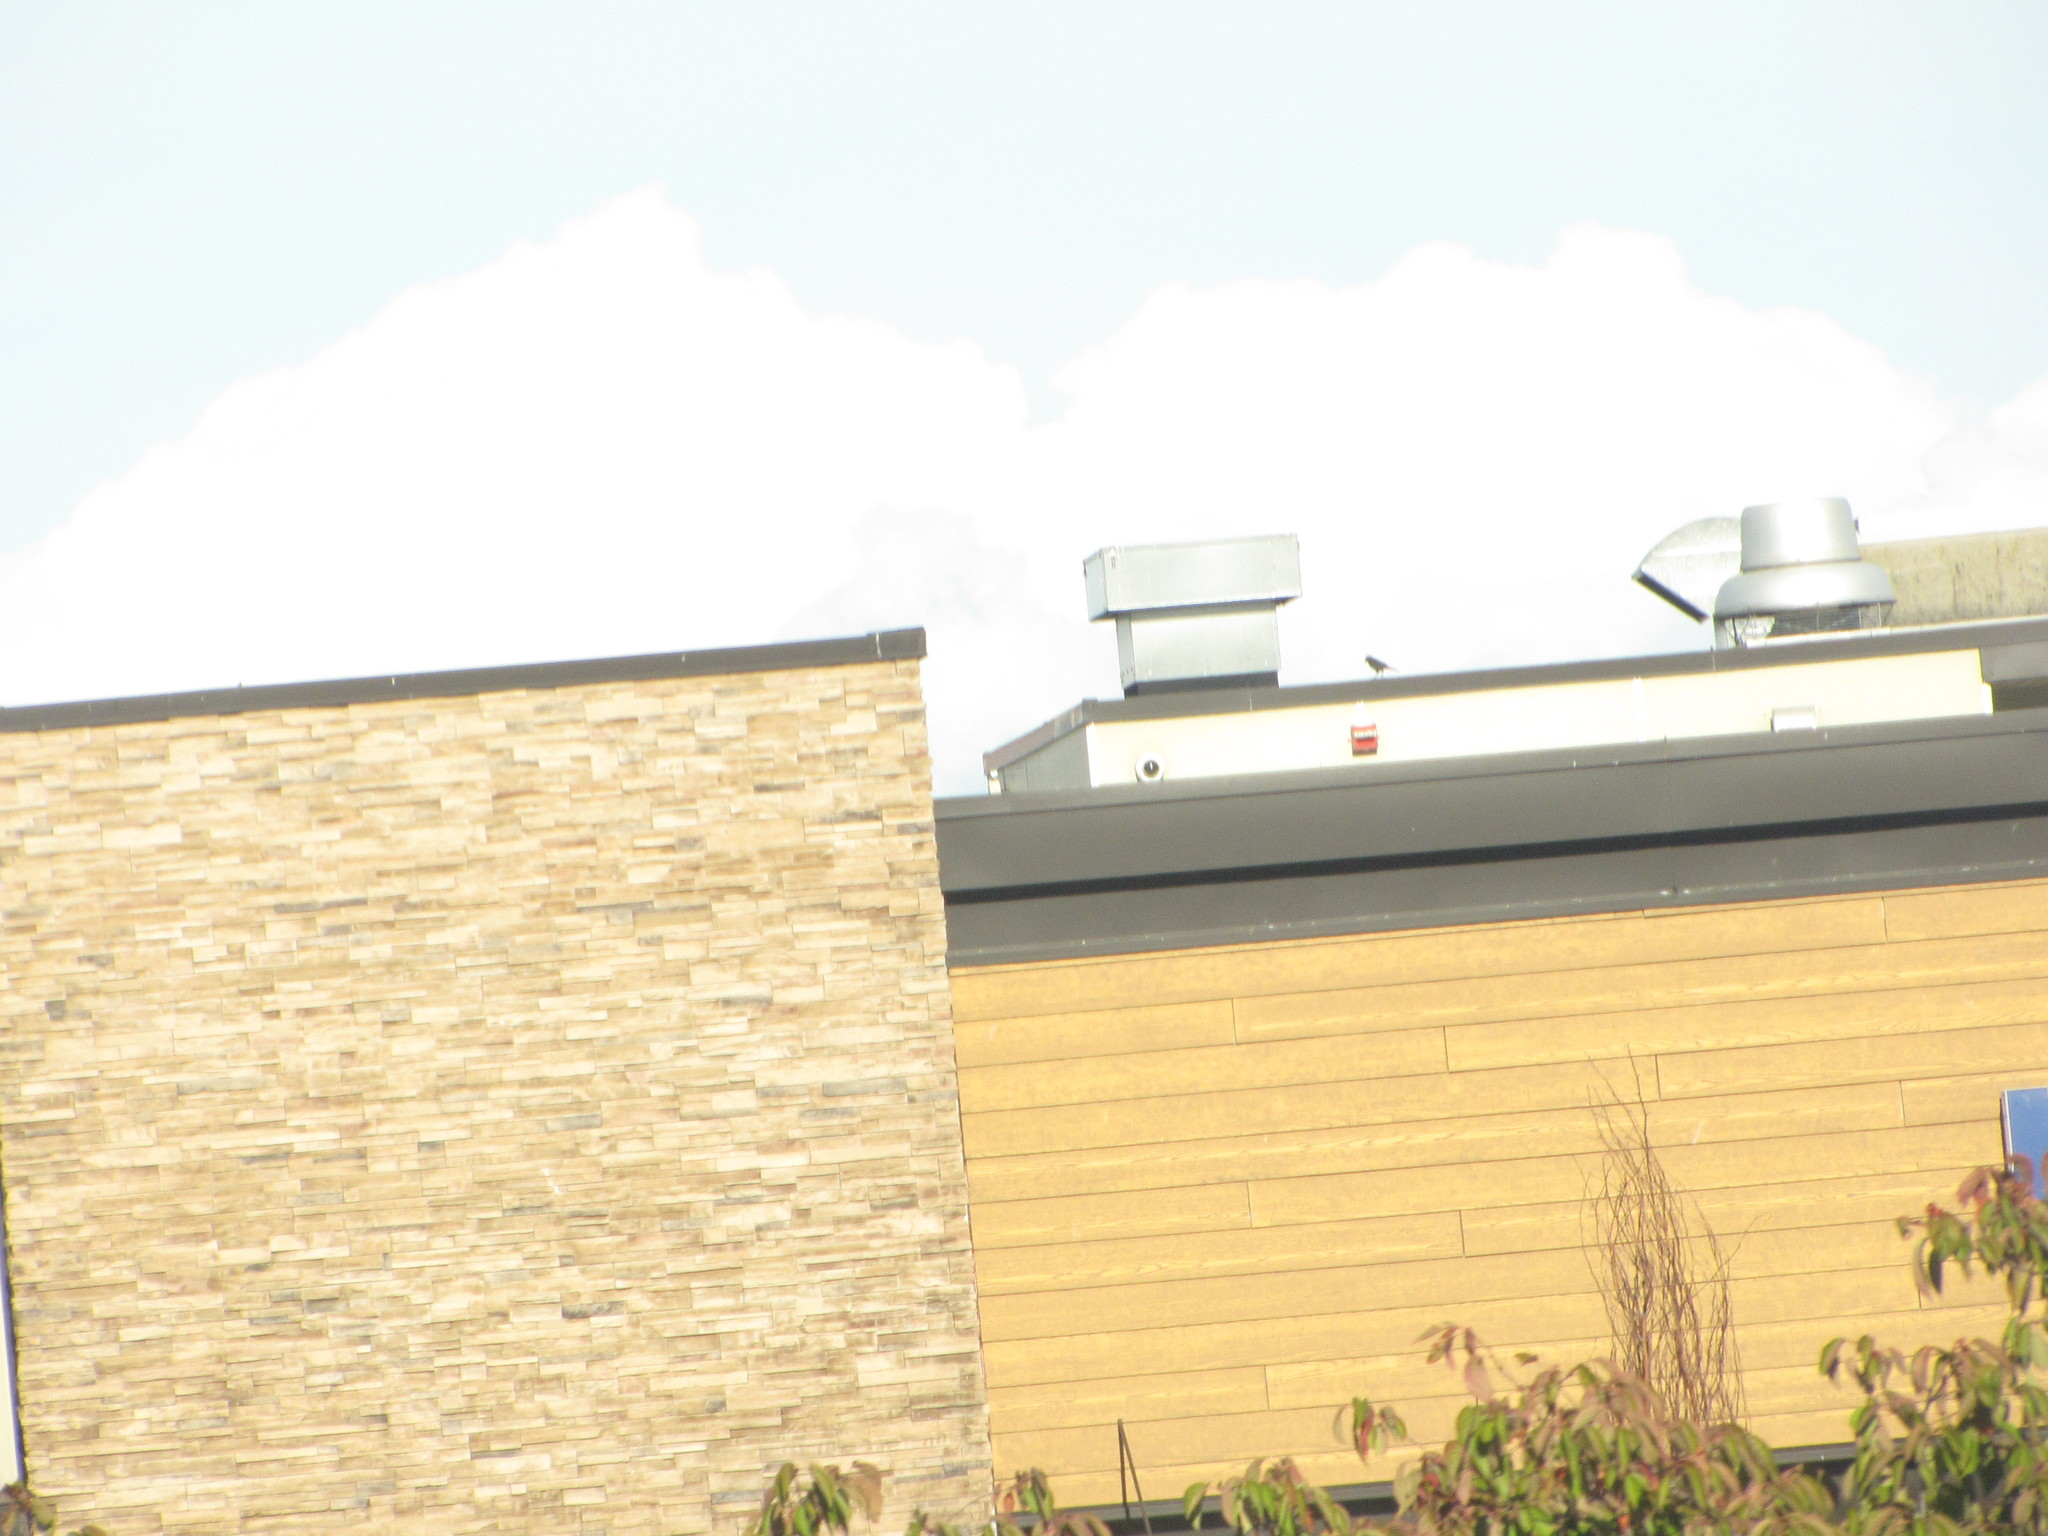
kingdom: Animalia
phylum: Chordata
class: Aves
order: Passeriformes
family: Passeridae
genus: Passer
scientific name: Passer domesticus
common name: House sparrow
